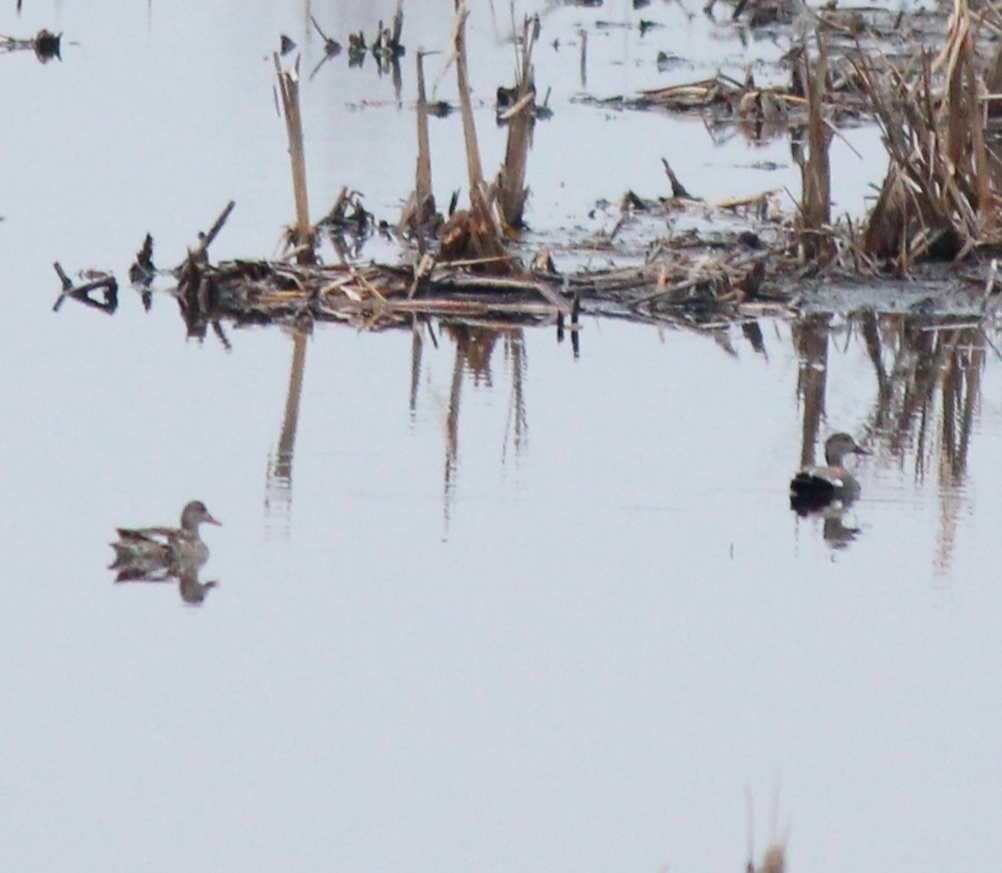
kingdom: Animalia
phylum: Chordata
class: Aves
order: Anseriformes
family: Anatidae
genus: Mareca
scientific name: Mareca strepera
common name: Gadwall
